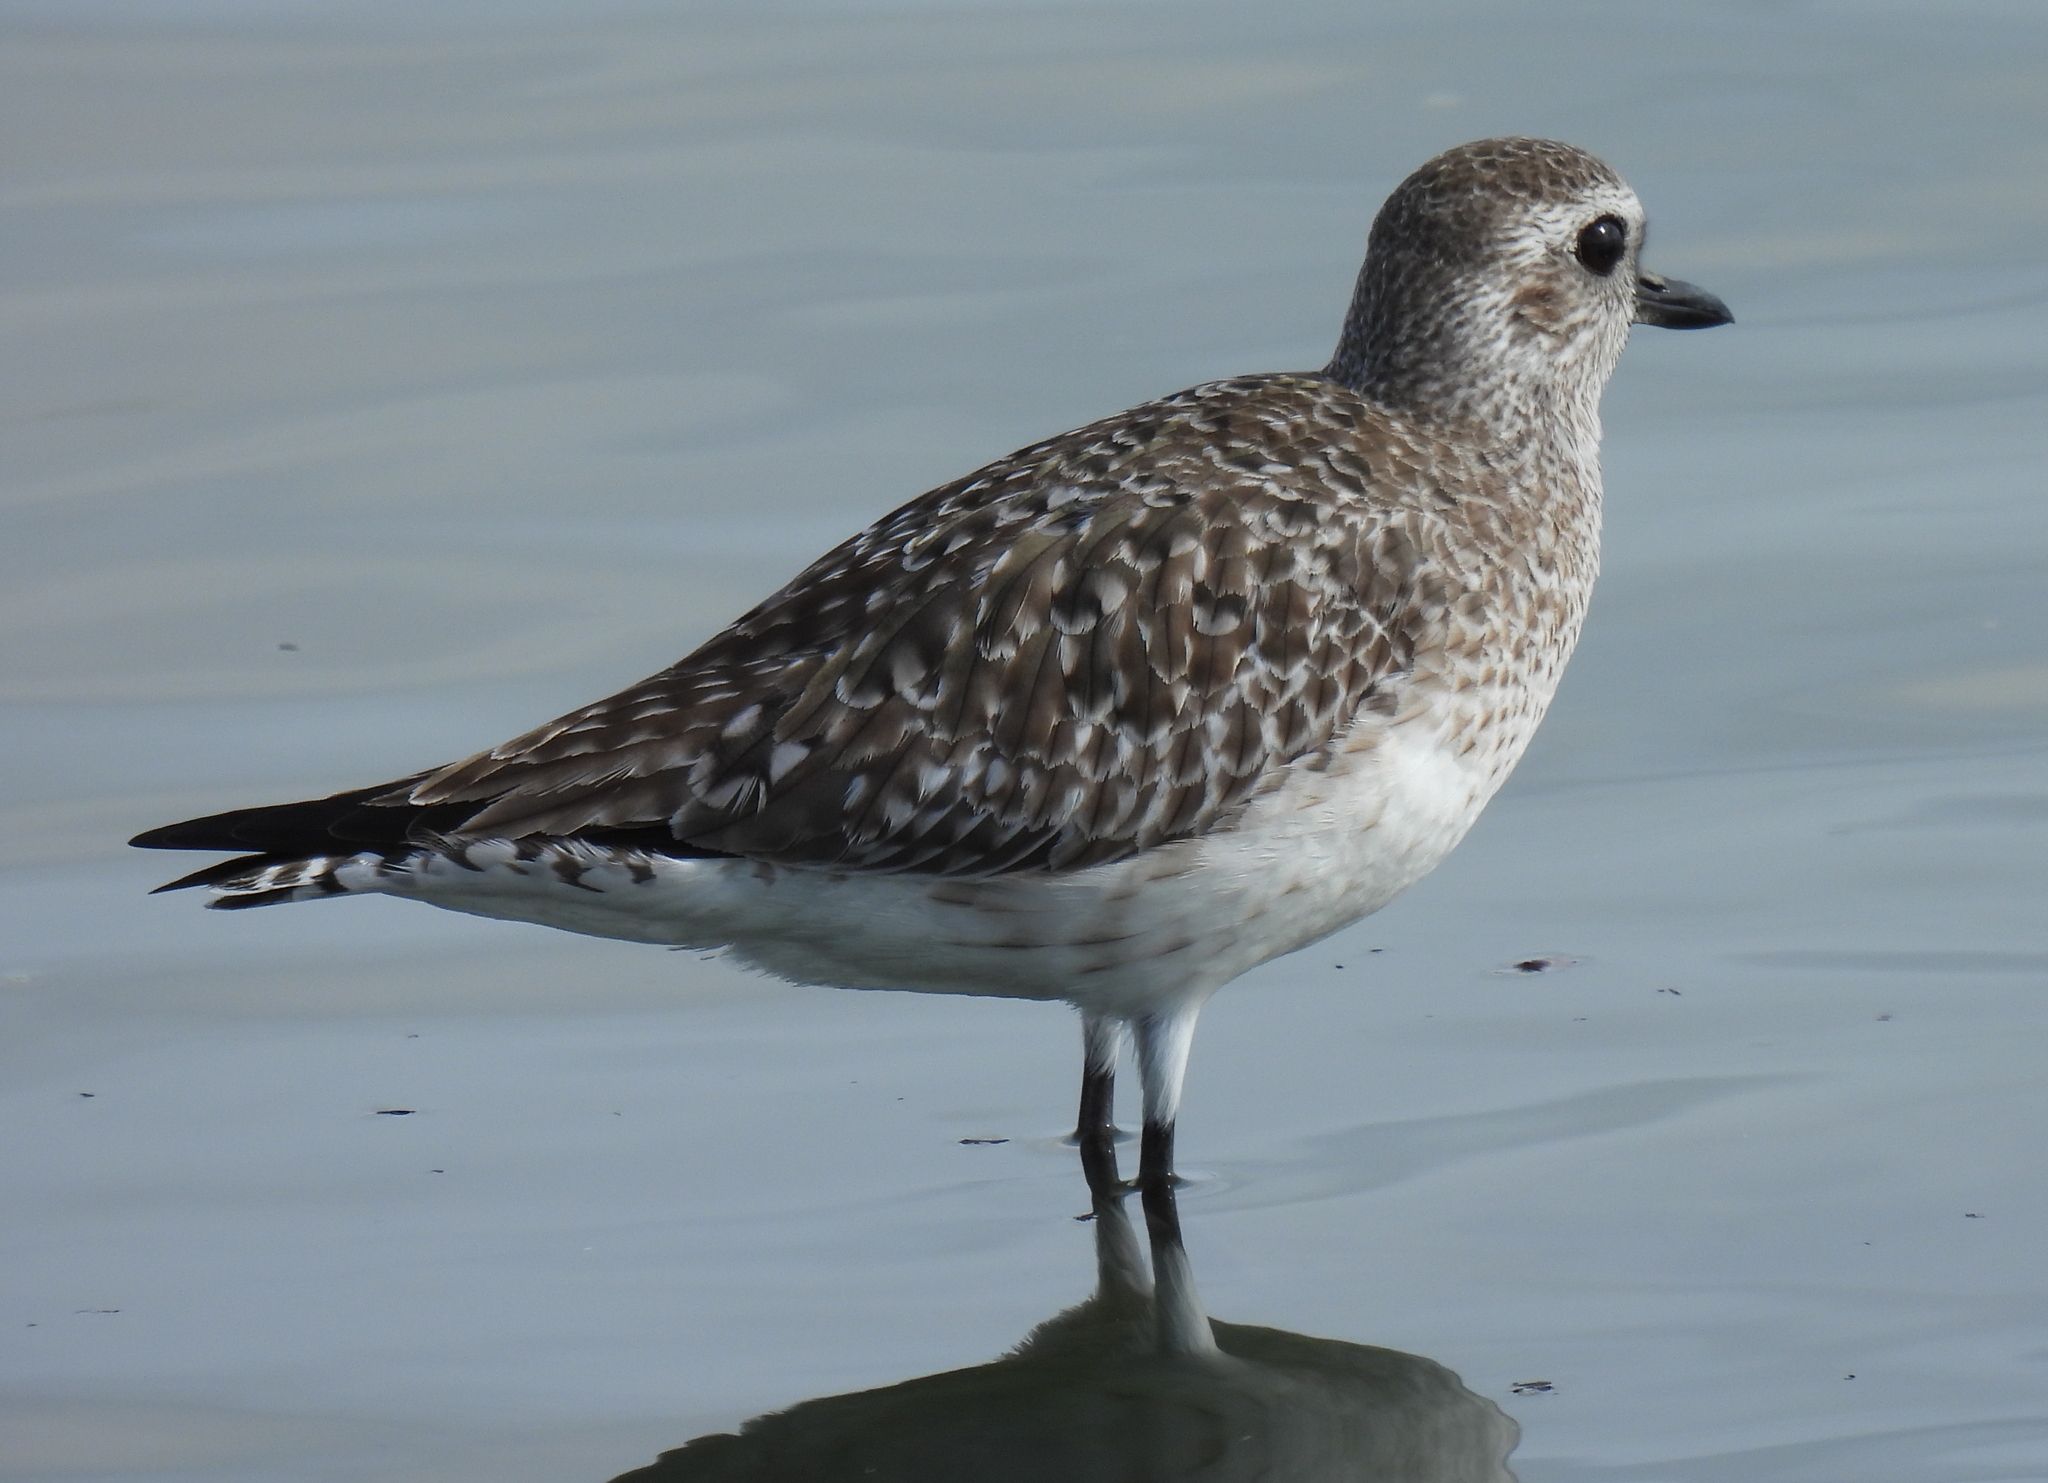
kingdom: Animalia
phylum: Chordata
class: Aves
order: Charadriiformes
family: Charadriidae
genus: Pluvialis
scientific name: Pluvialis squatarola
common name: Grey plover
